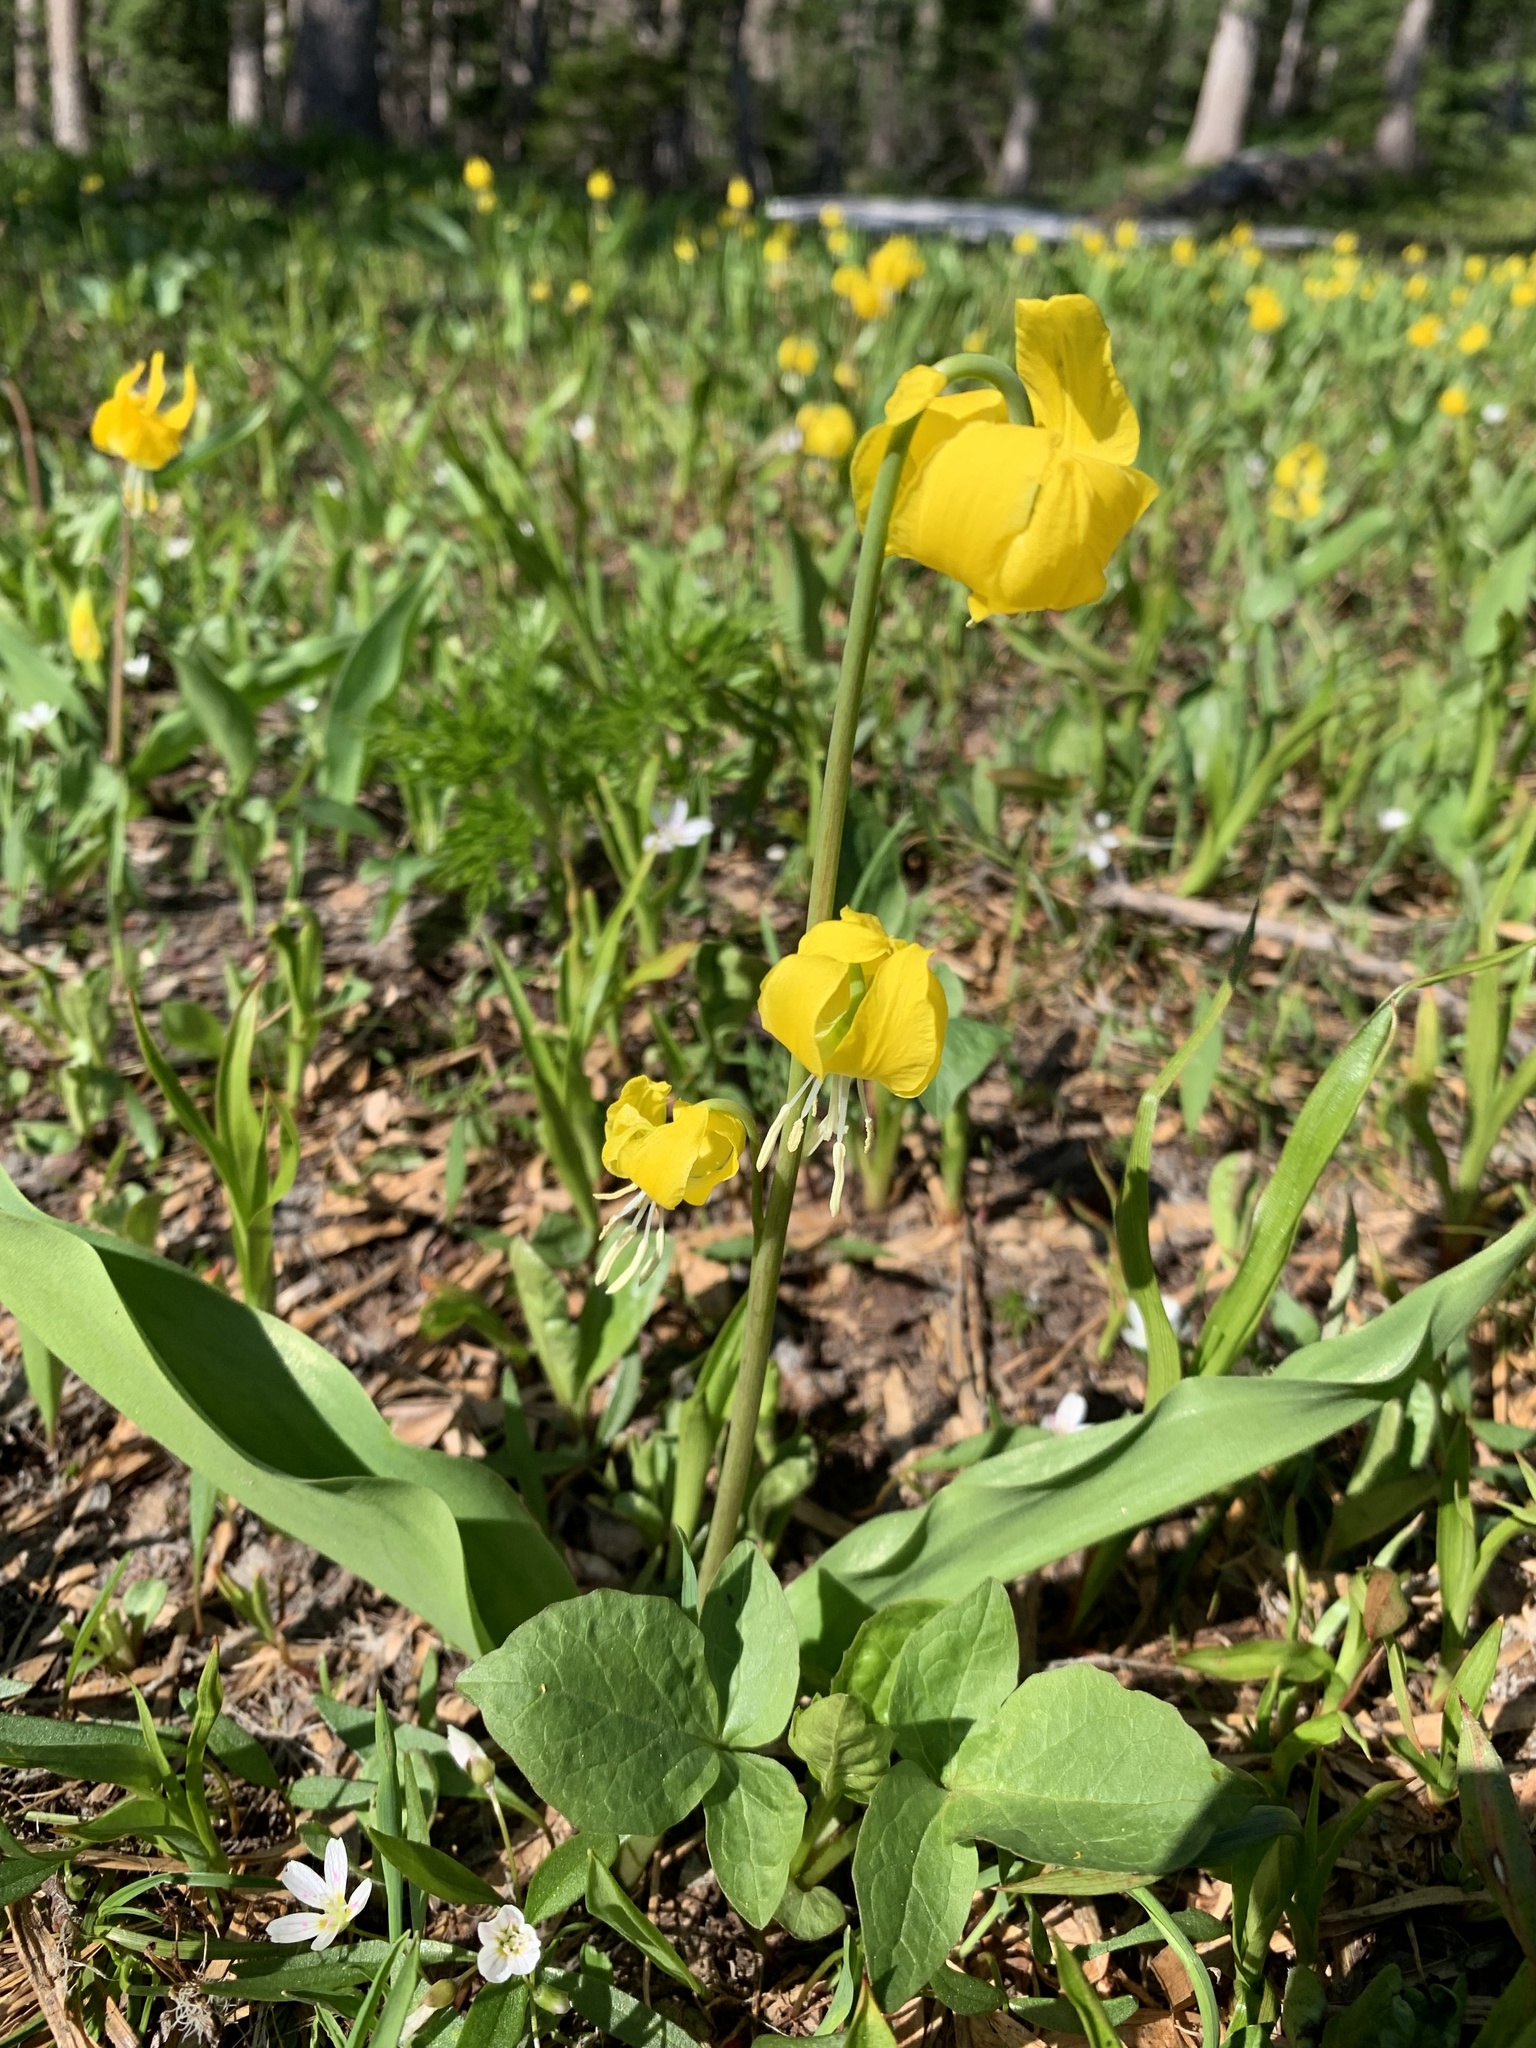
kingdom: Plantae
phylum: Tracheophyta
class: Liliopsida
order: Liliales
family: Liliaceae
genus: Erythronium
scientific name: Erythronium grandiflorum
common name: Avalanche-lily
